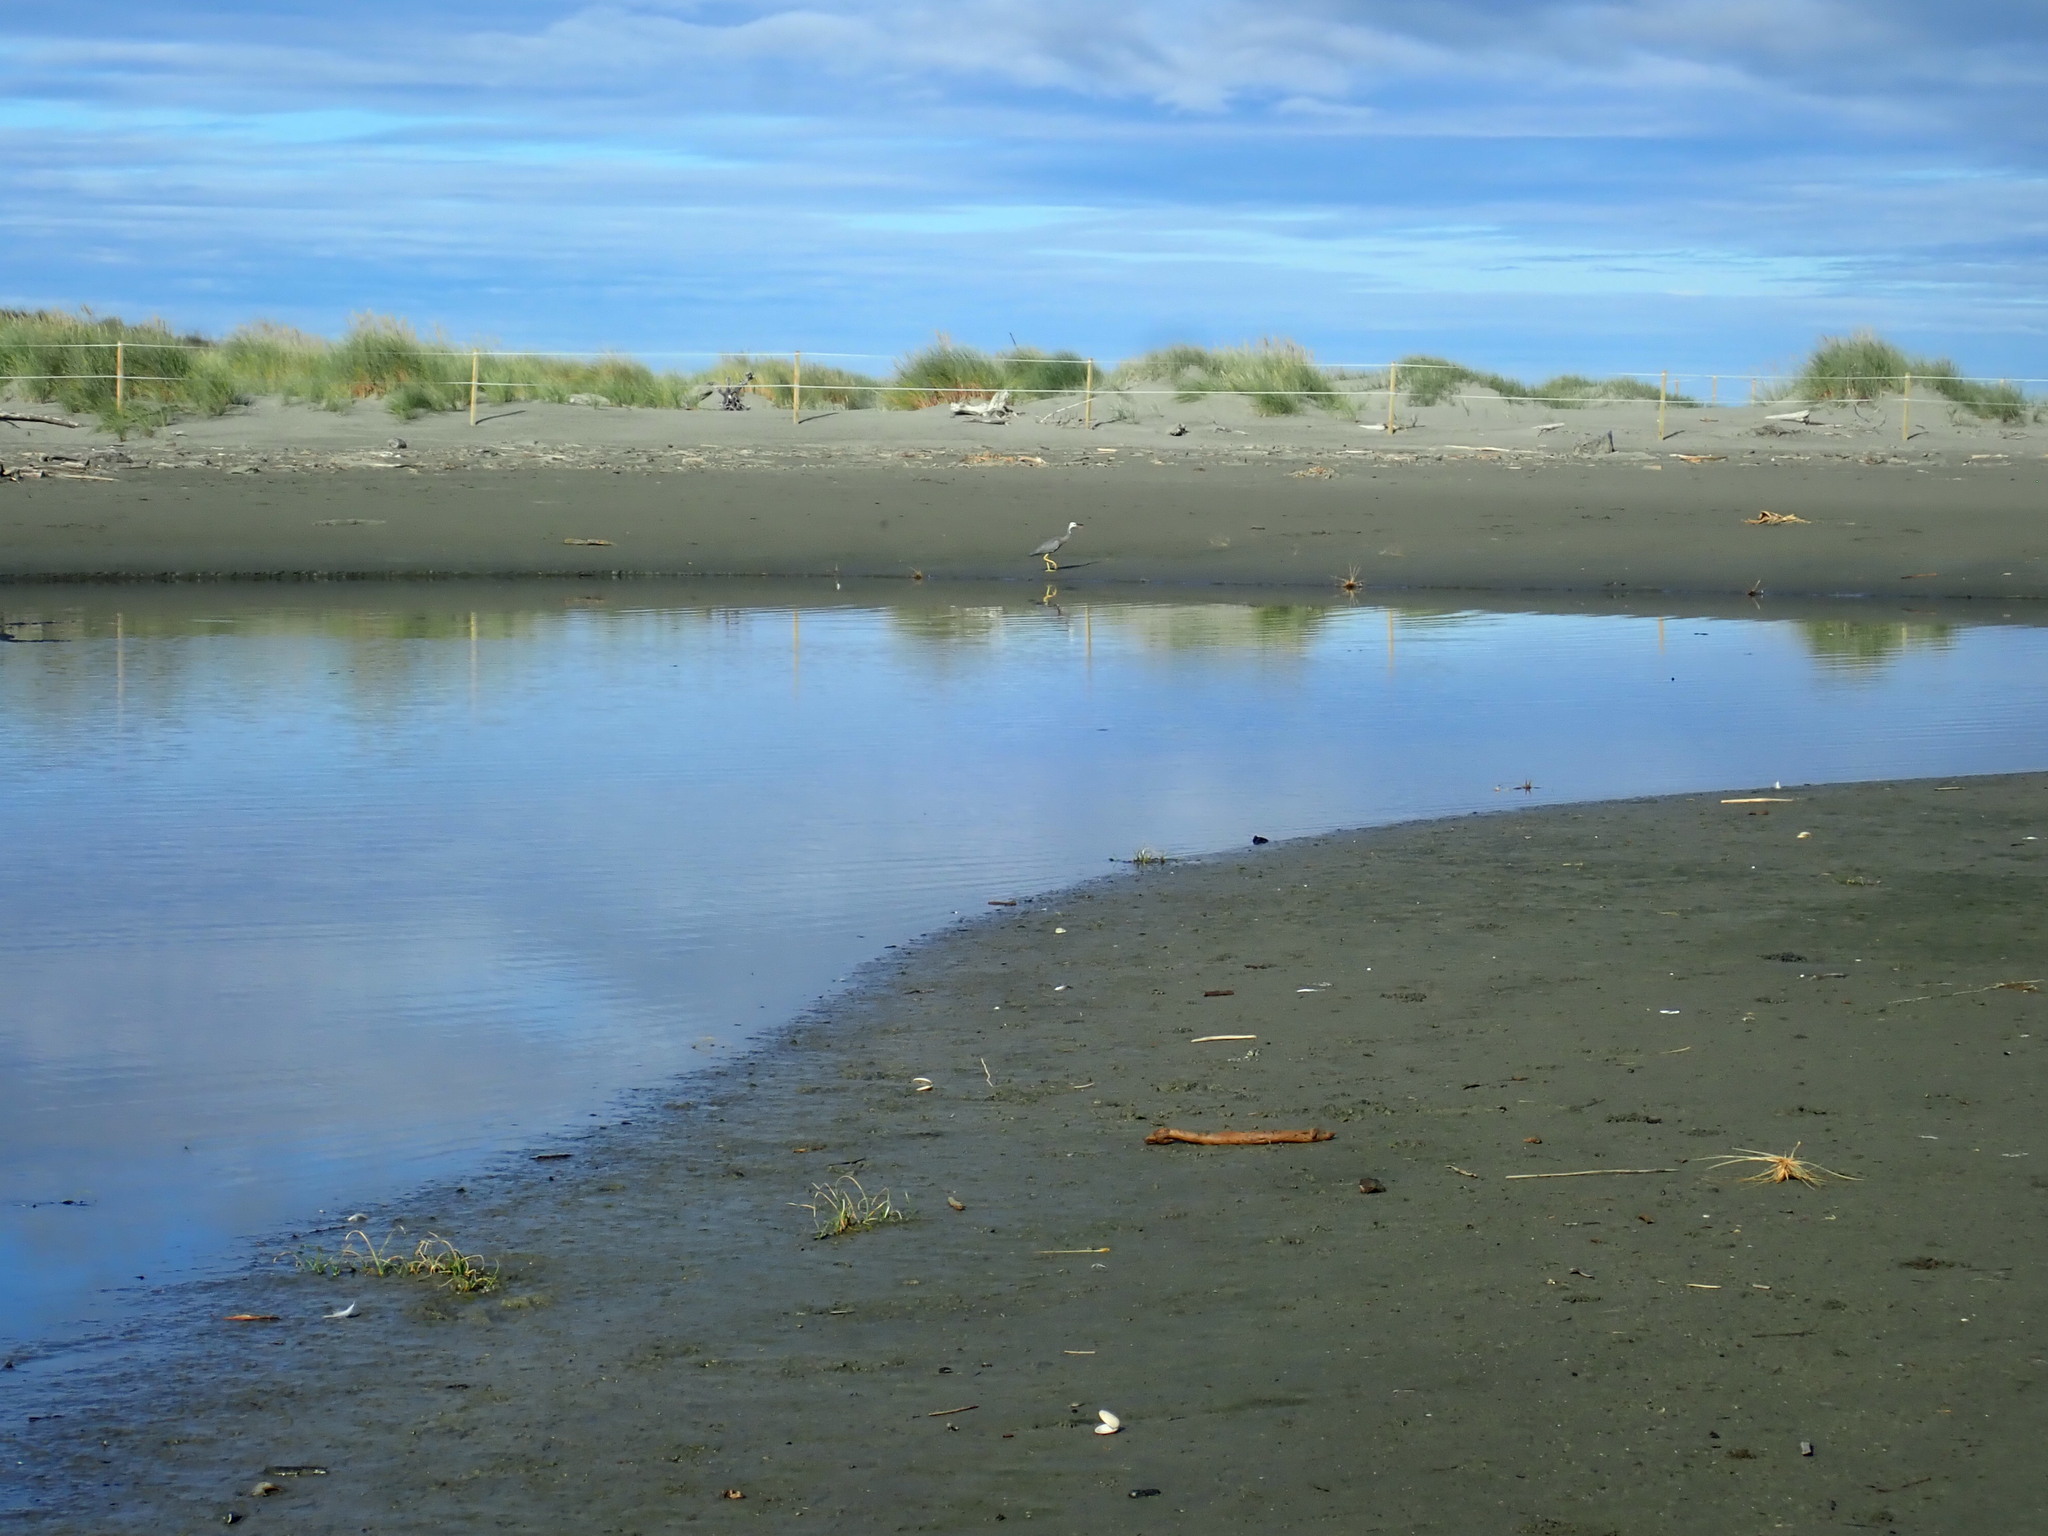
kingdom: Animalia
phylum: Chordata
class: Aves
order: Pelecaniformes
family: Ardeidae
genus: Egretta
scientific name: Egretta novaehollandiae
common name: White-faced heron
